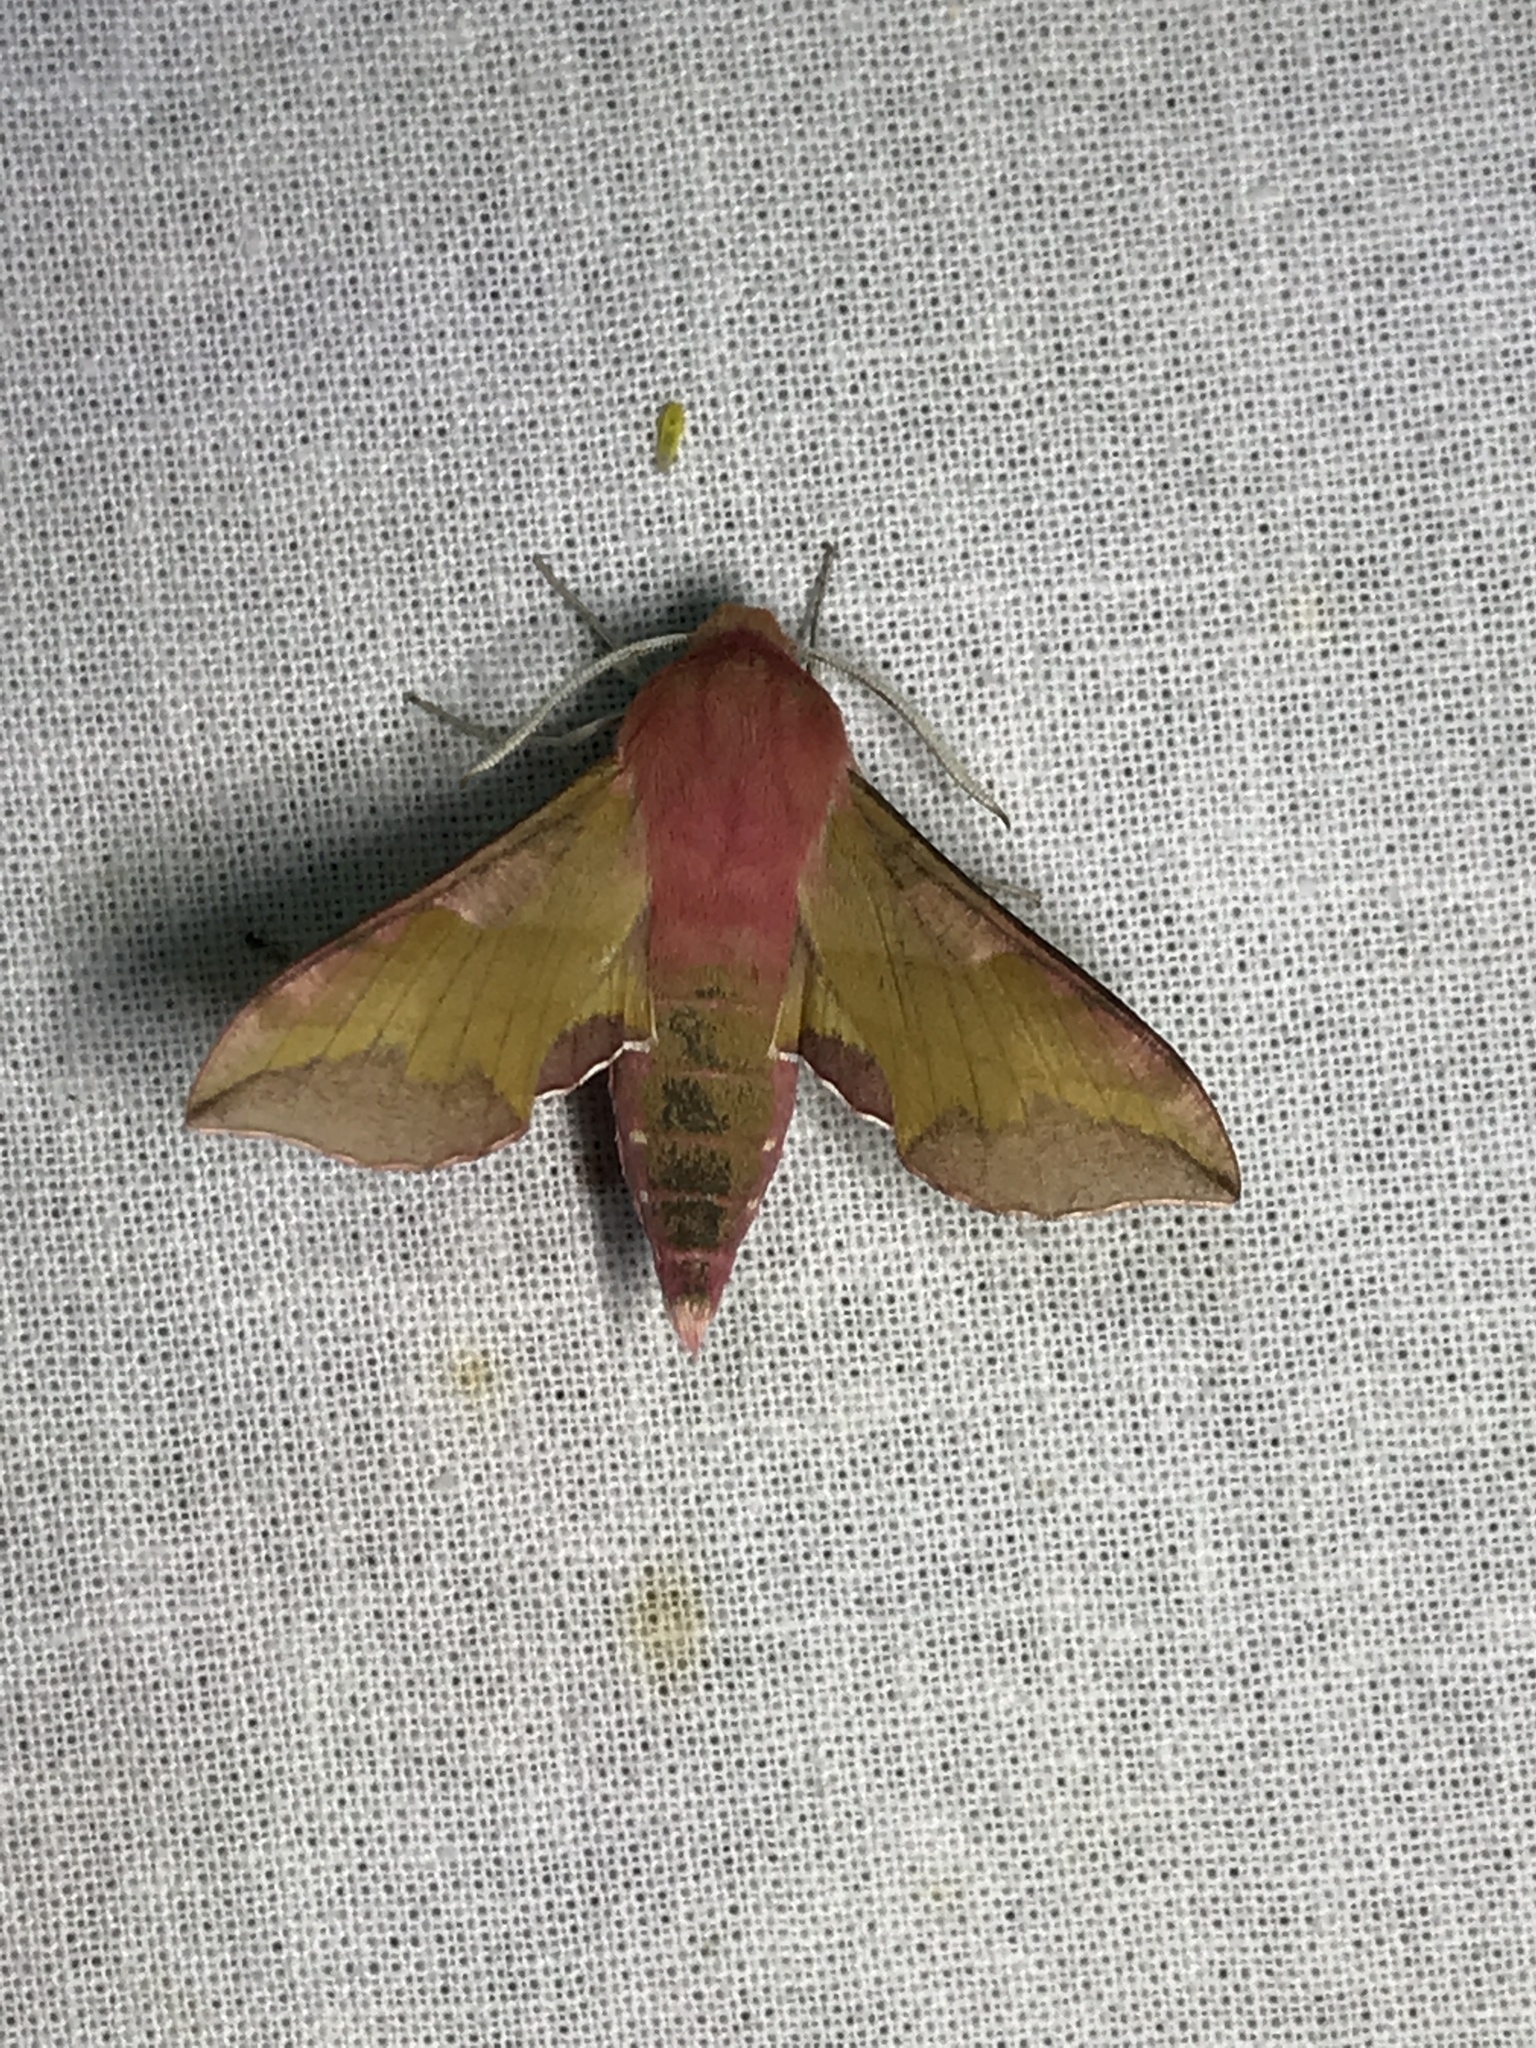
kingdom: Animalia
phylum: Arthropoda
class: Insecta
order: Lepidoptera
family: Sphingidae
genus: Deilephila
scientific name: Deilephila porcellus
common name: Small elephant hawk-moth
